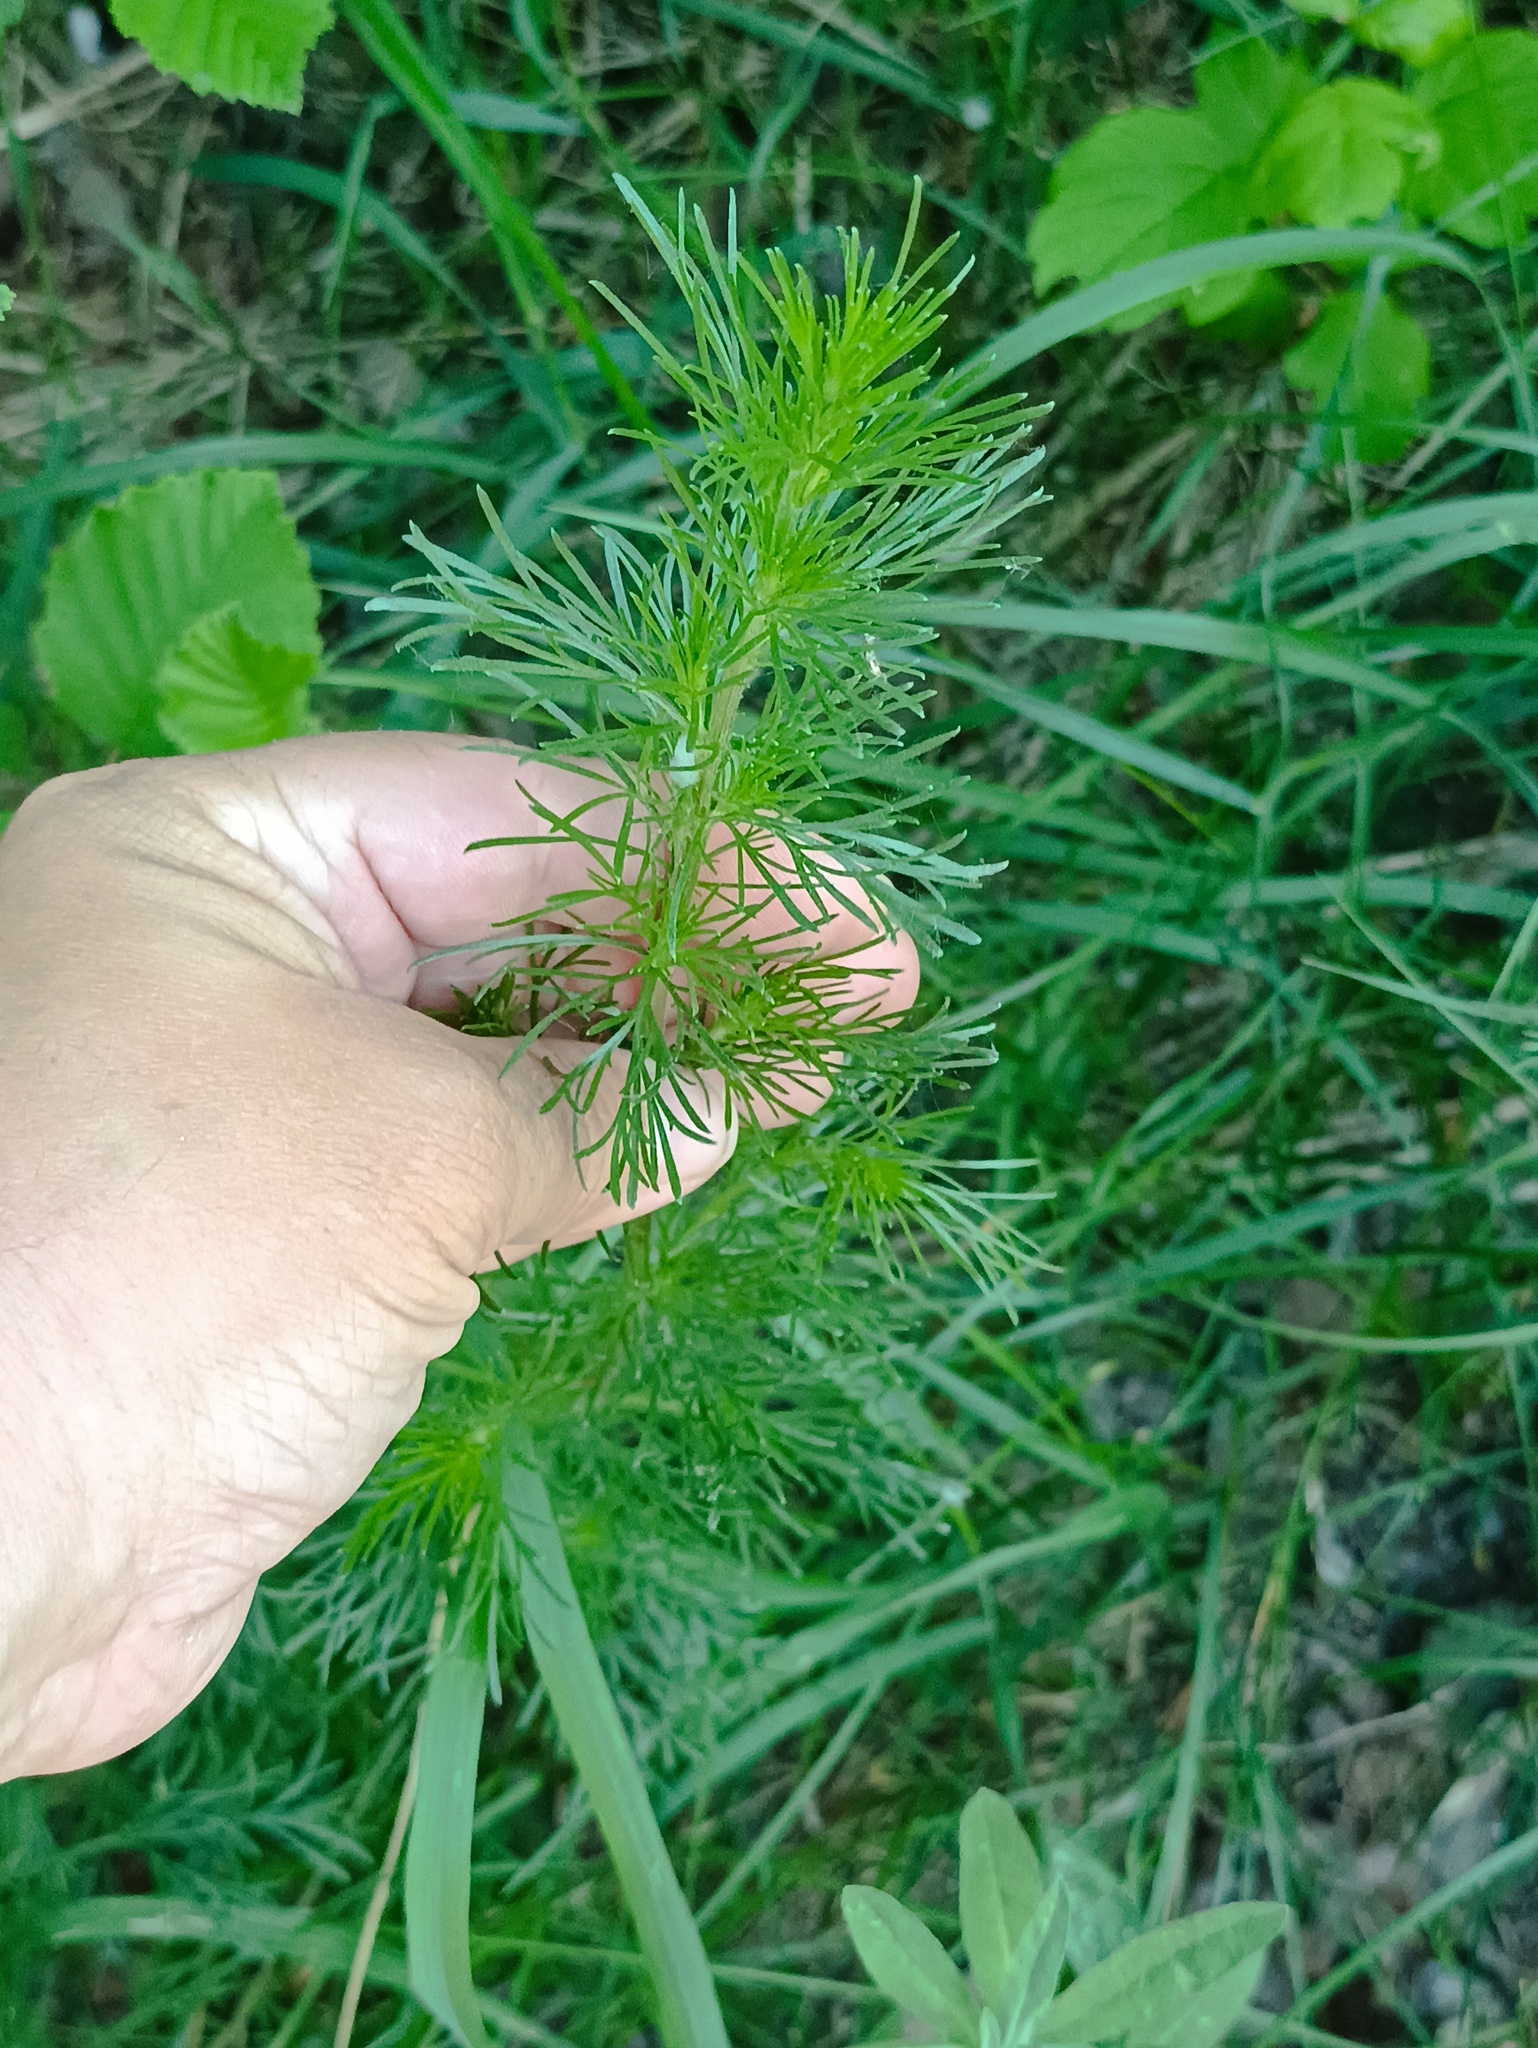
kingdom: Plantae
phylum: Tracheophyta
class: Magnoliopsida
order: Asterales
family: Asteraceae
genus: Artemisia
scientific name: Artemisia campestris
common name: Field wormwood
